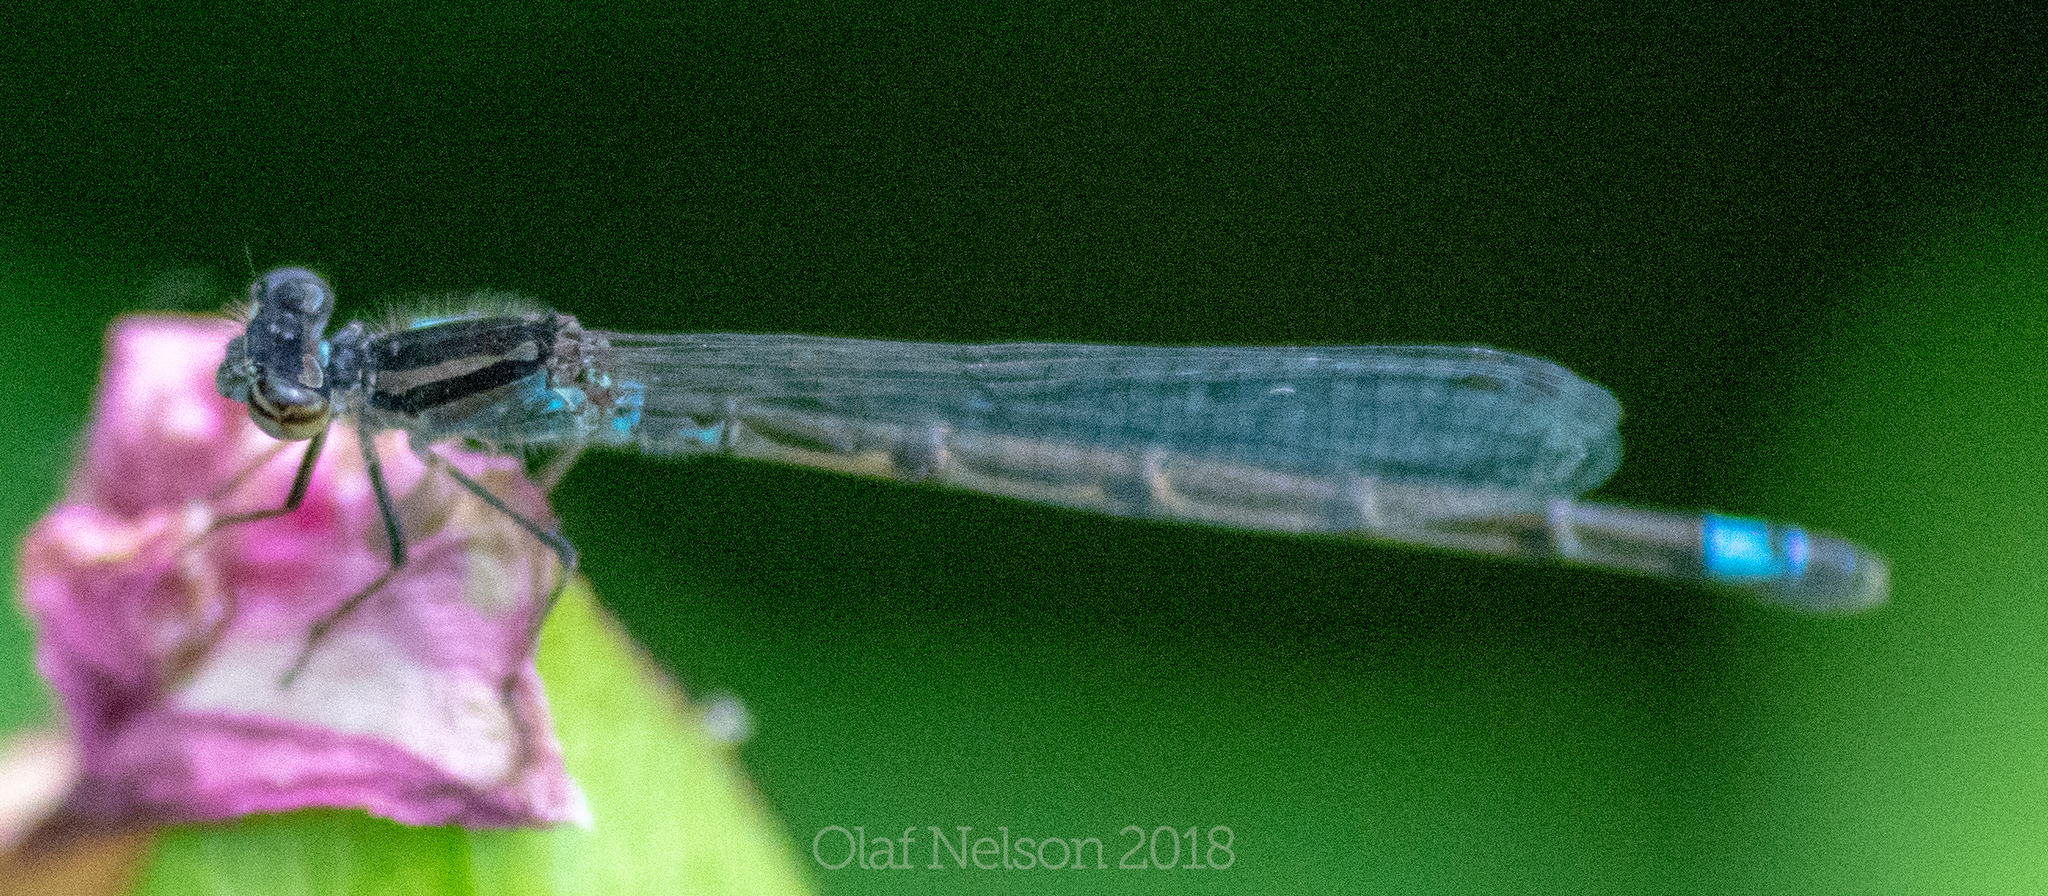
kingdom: Animalia
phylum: Arthropoda
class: Insecta
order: Odonata
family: Coenagrionidae
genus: Enallagma
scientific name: Enallagma geminatum
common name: Skimming bluet
